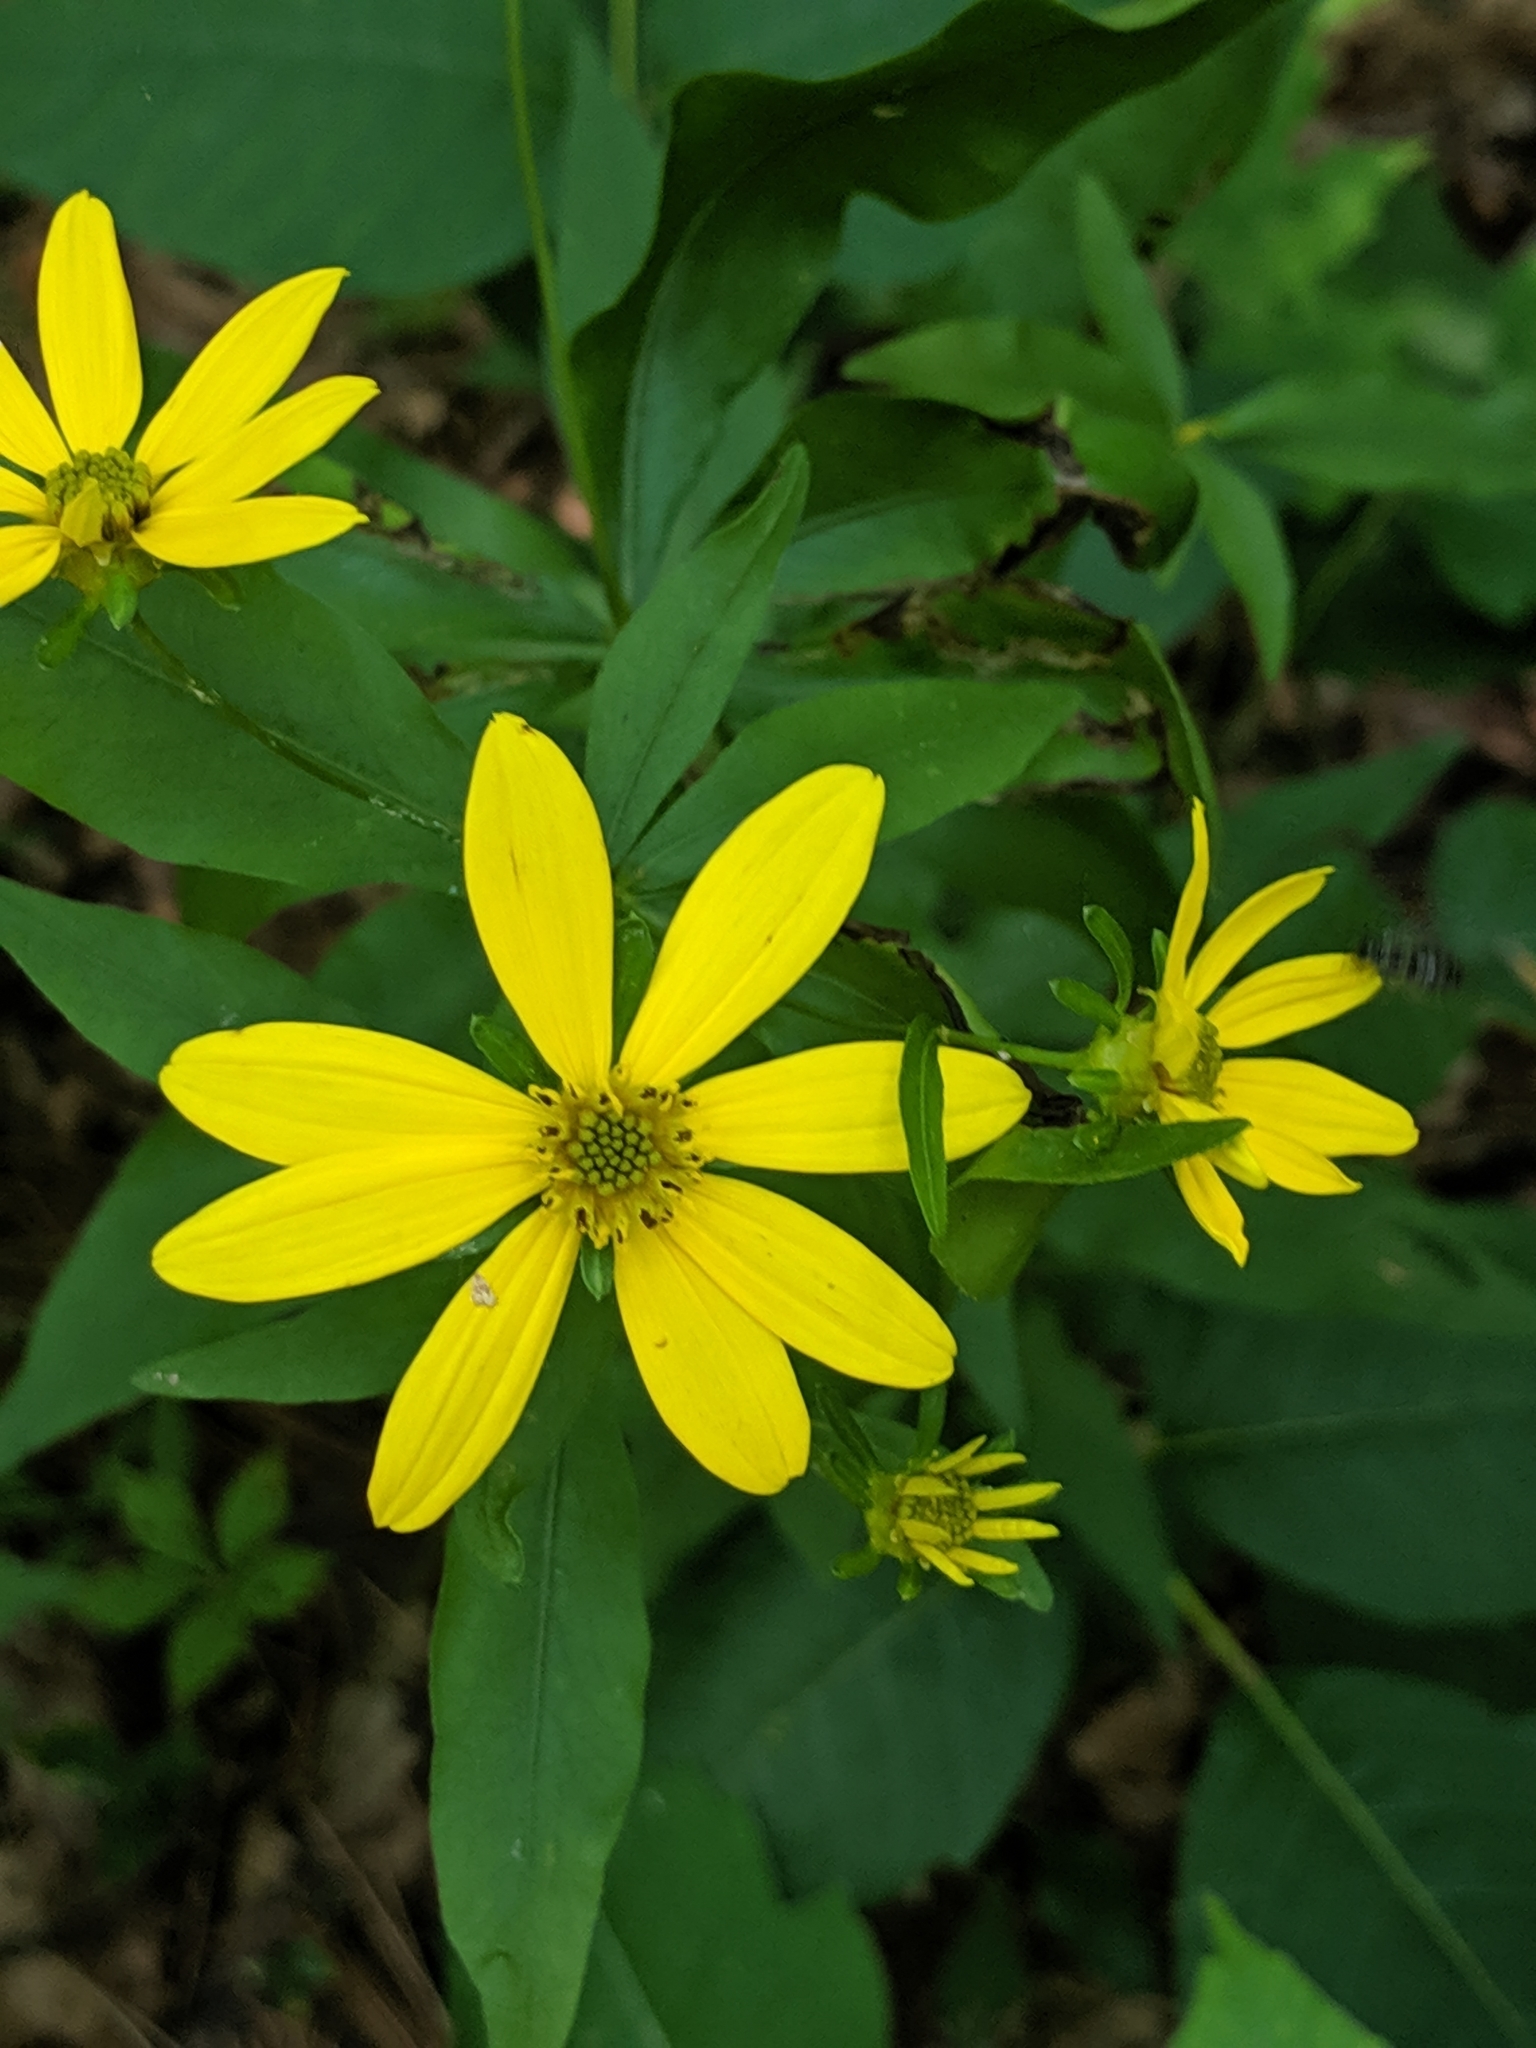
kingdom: Plantae
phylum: Tracheophyta
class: Magnoliopsida
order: Asterales
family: Asteraceae
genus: Coreopsis
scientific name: Coreopsis major
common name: Forest tickseed
